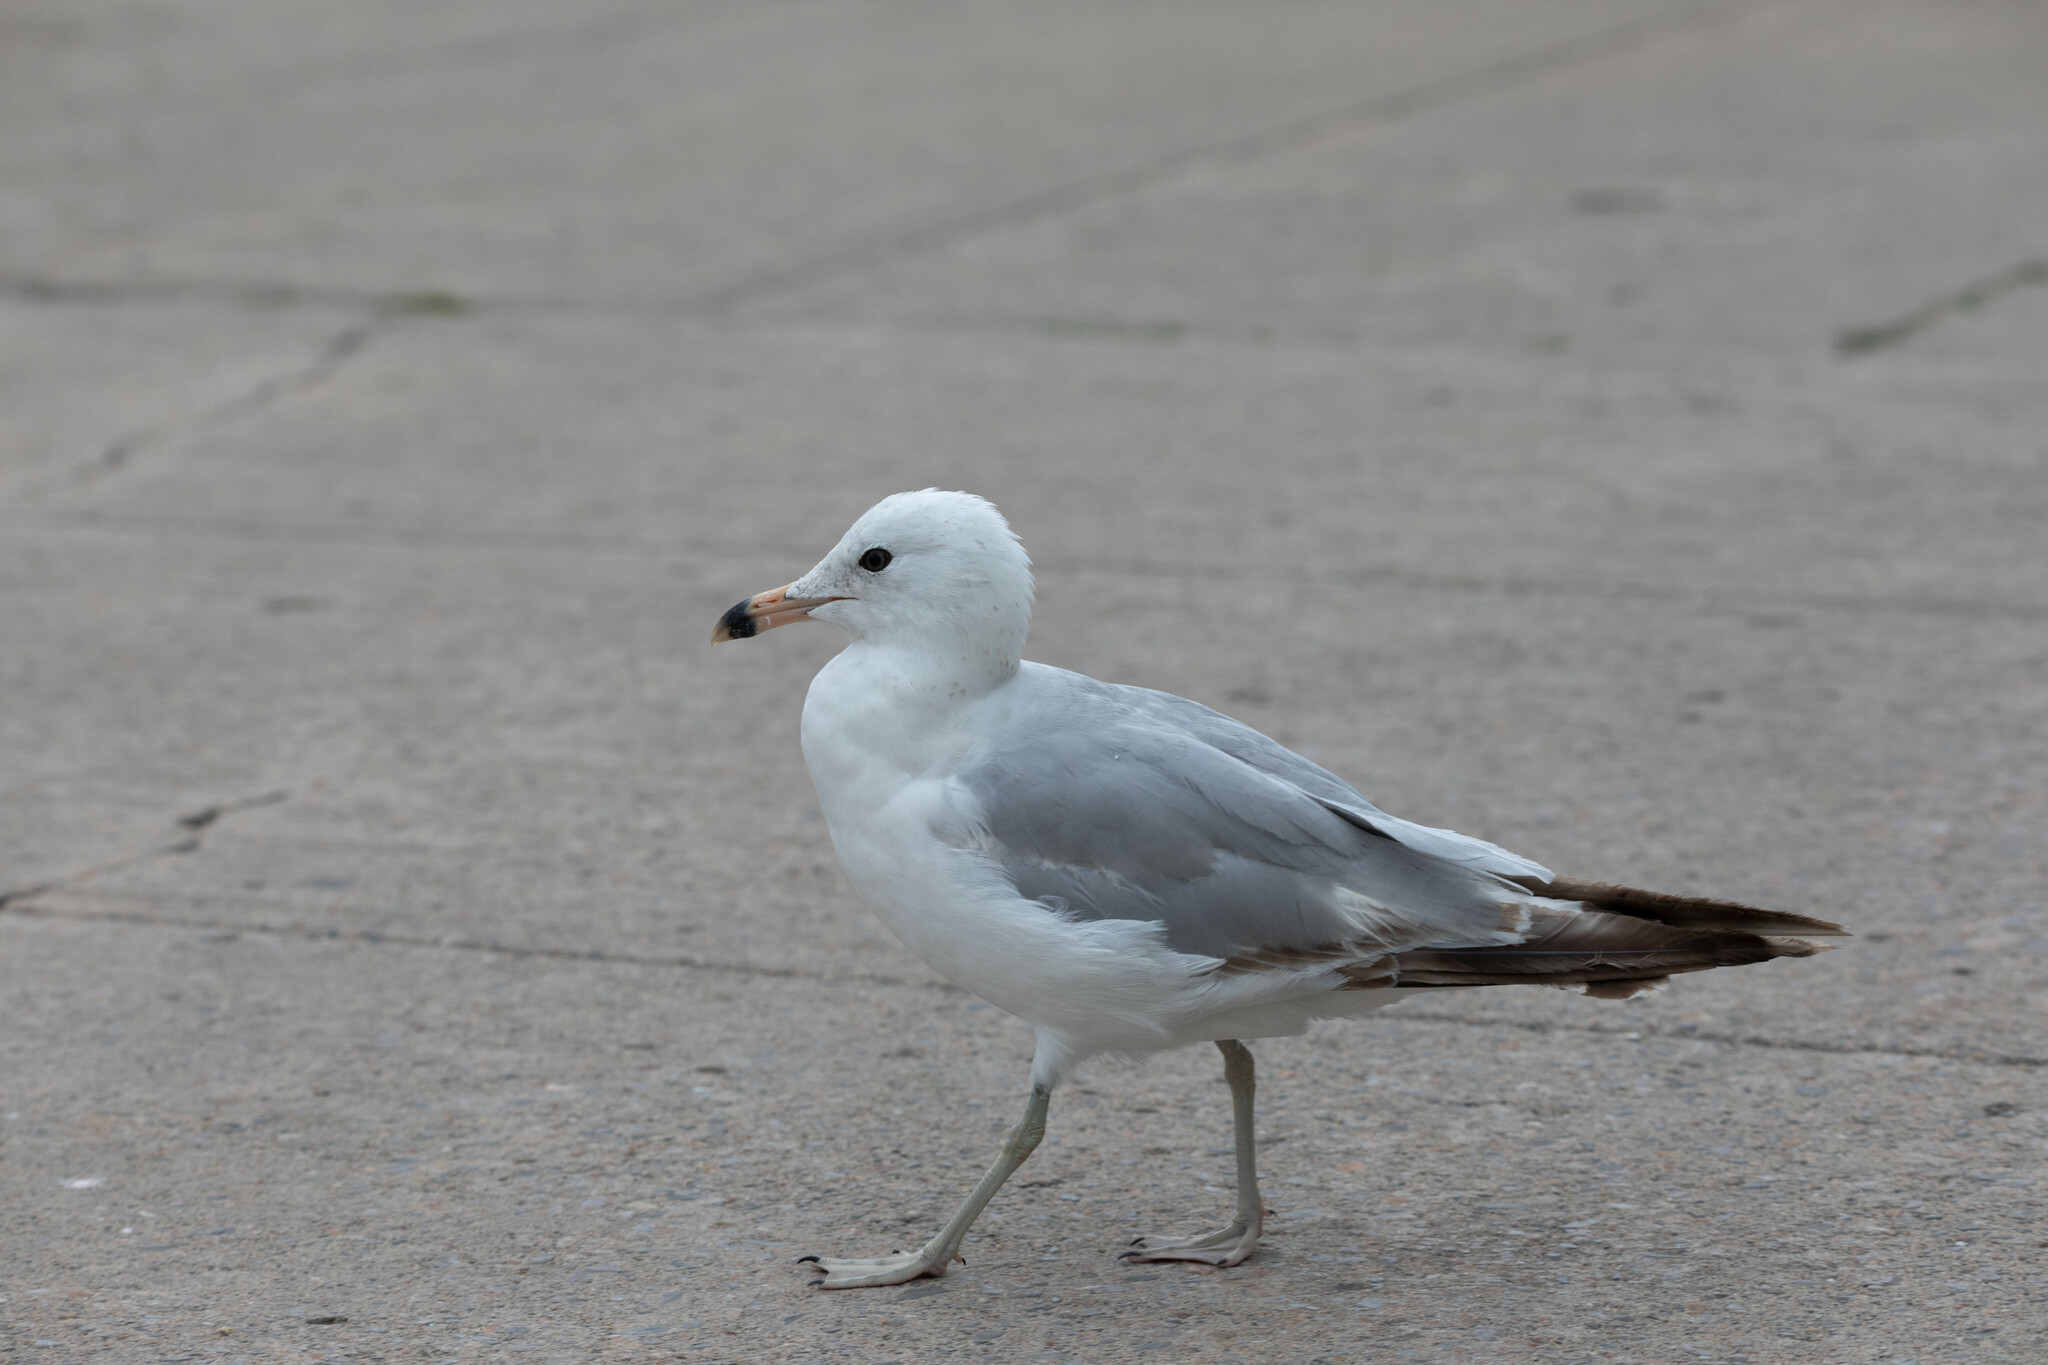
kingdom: Animalia
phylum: Chordata
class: Aves
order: Charadriiformes
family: Laridae
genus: Larus
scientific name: Larus delawarensis
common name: Ring-billed gull
